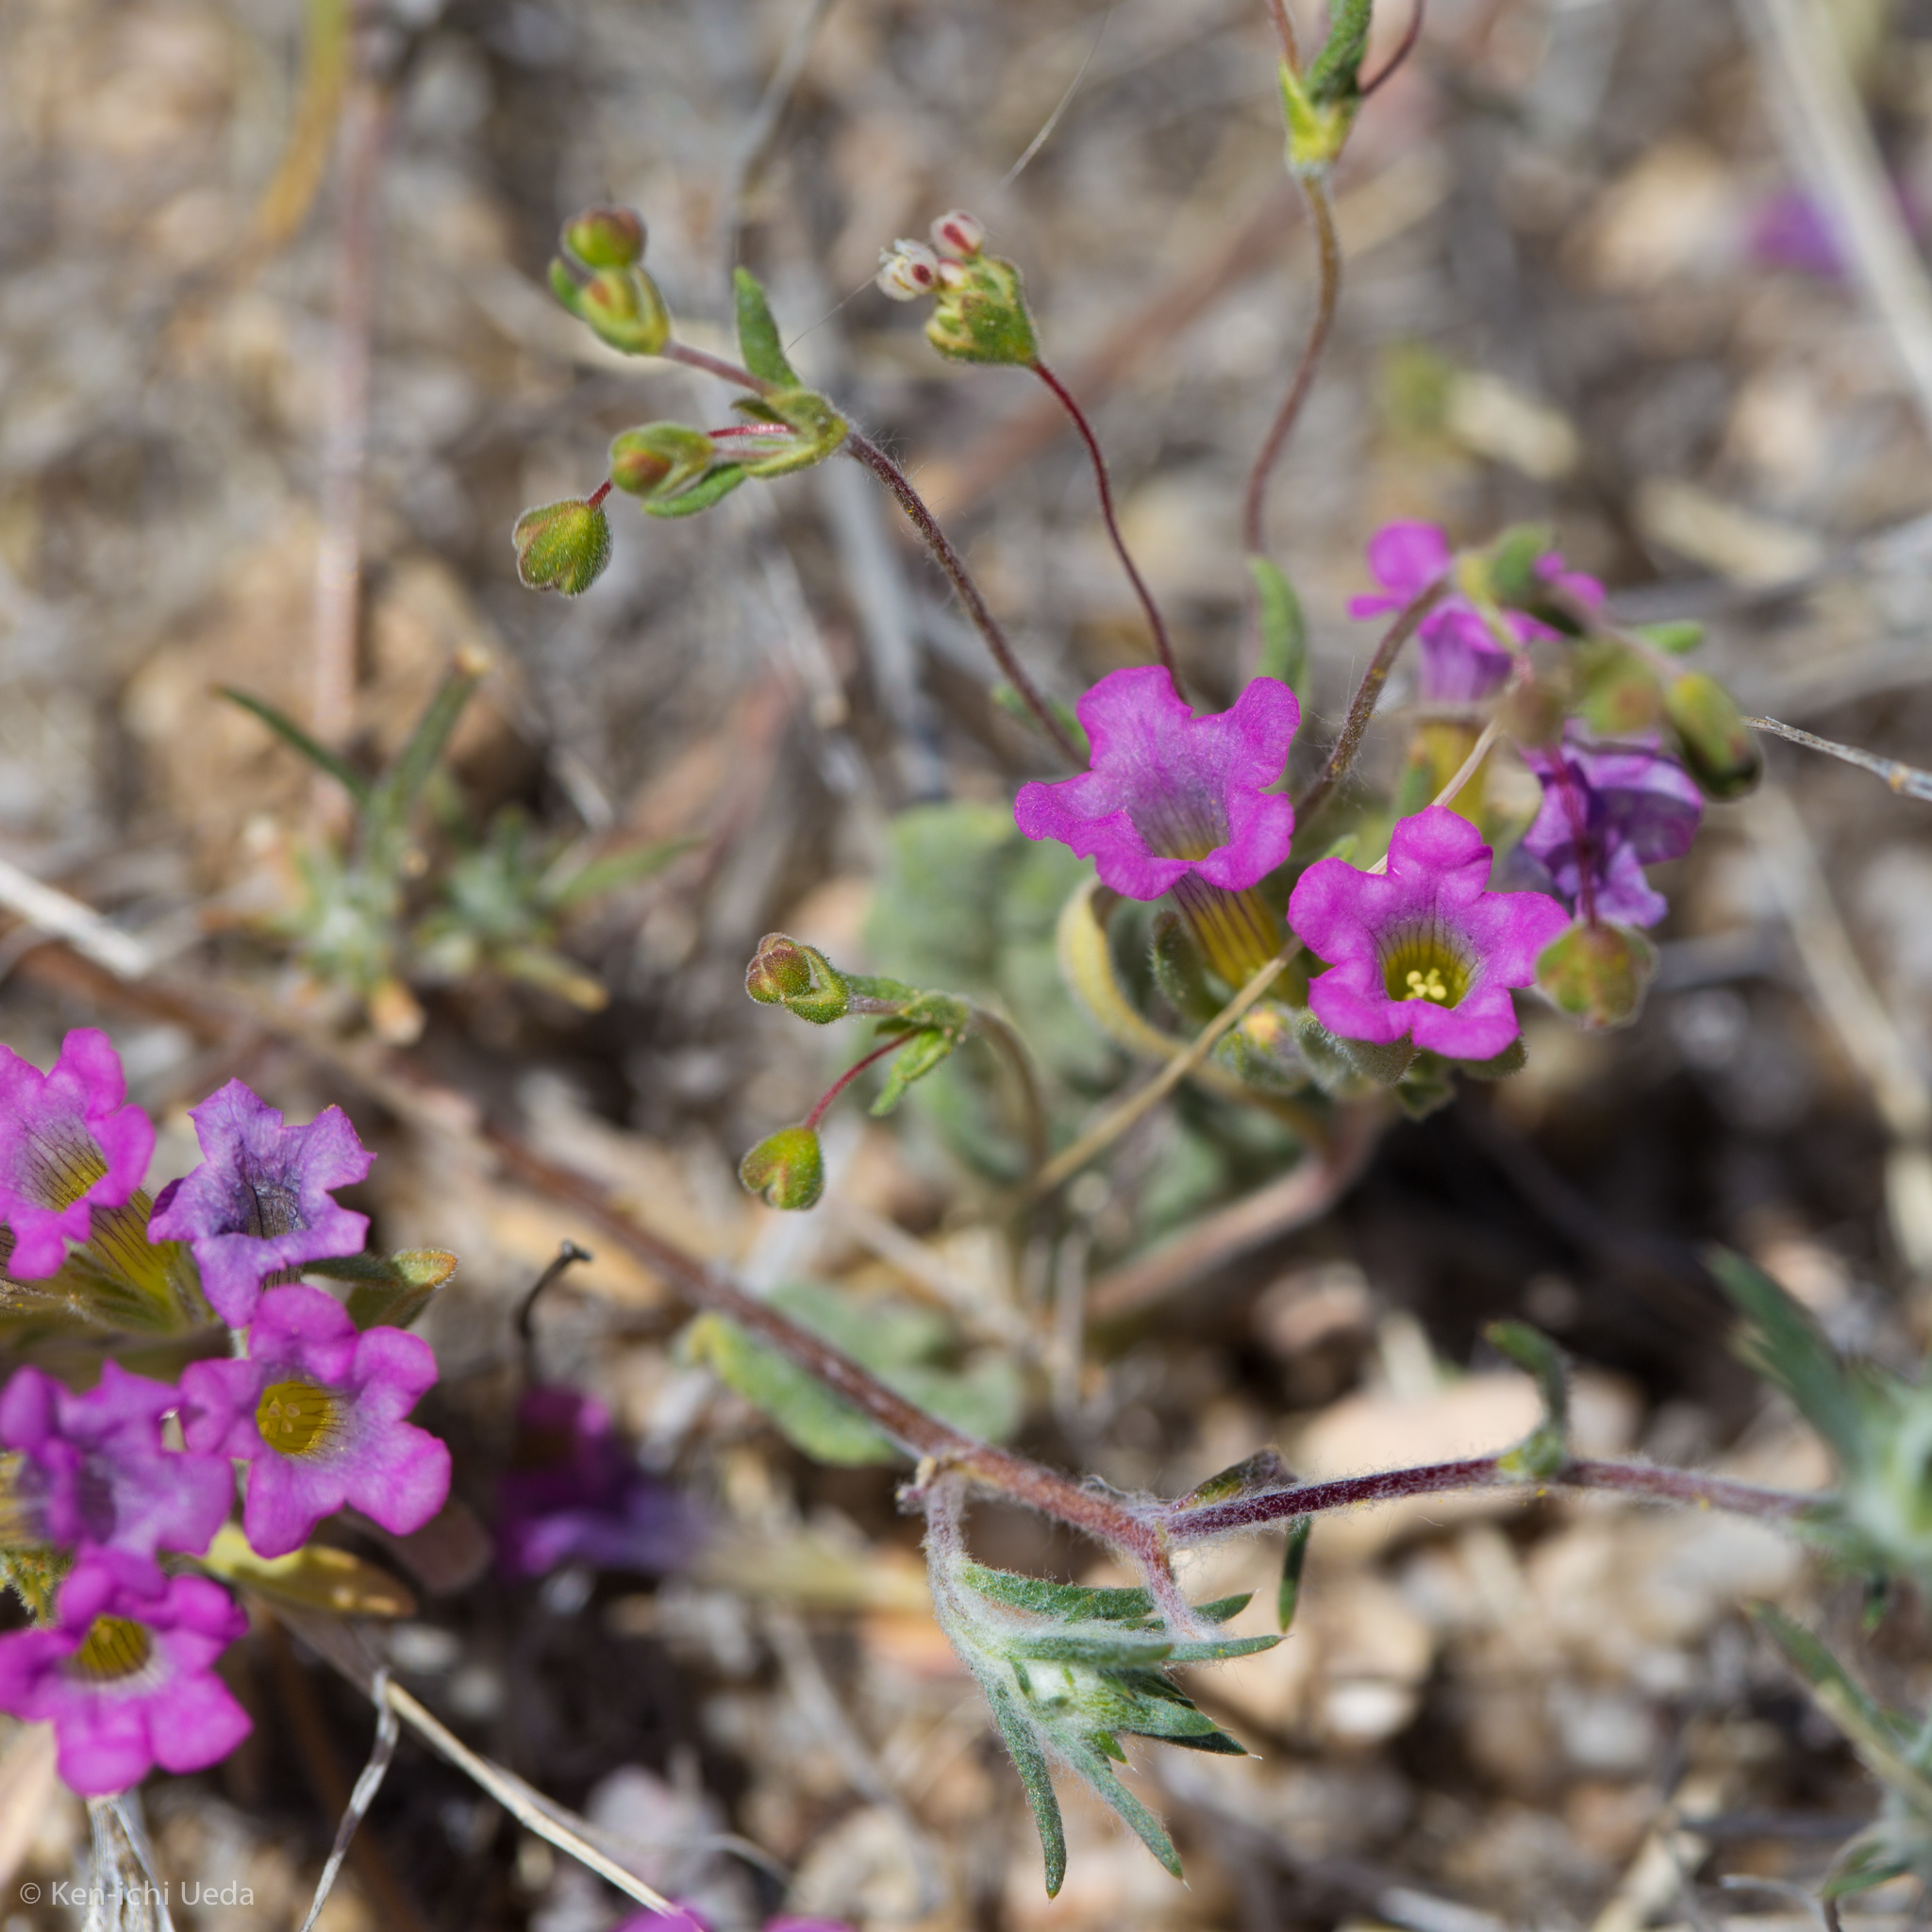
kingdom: Plantae
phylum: Tracheophyta
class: Magnoliopsida
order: Boraginales
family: Namaceae
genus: Nama
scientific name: Nama demissa
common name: Leafy nama
